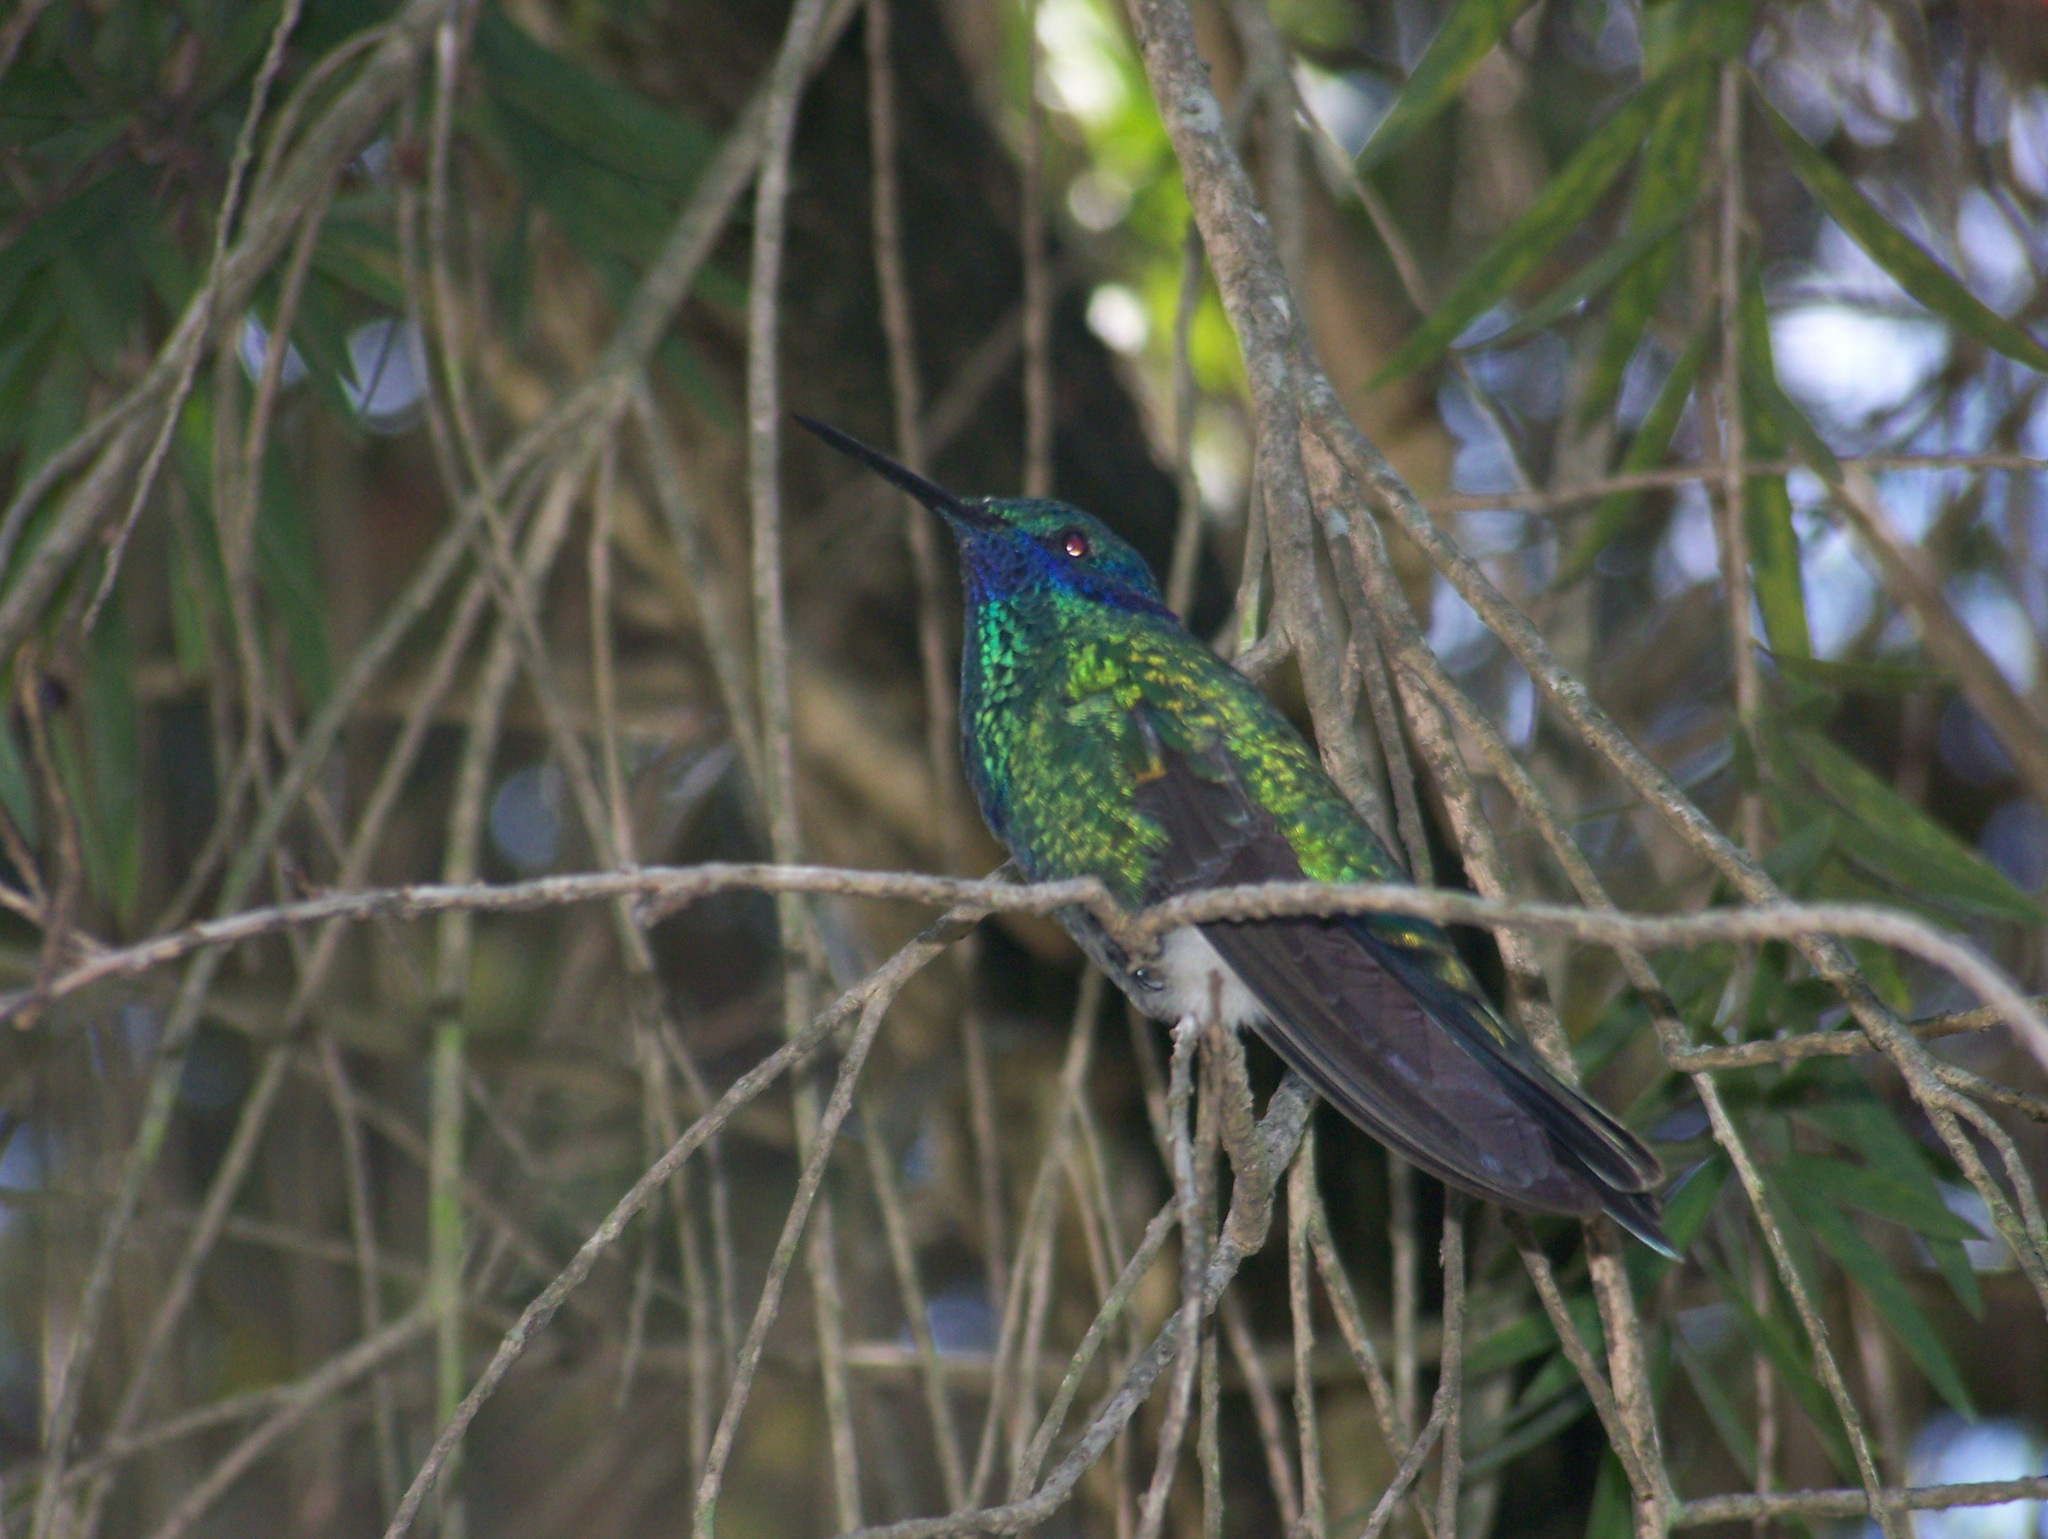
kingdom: Animalia
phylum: Chordata
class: Aves
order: Apodiformes
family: Trochilidae
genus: Colibri
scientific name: Colibri coruscans
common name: Sparkling violetear
